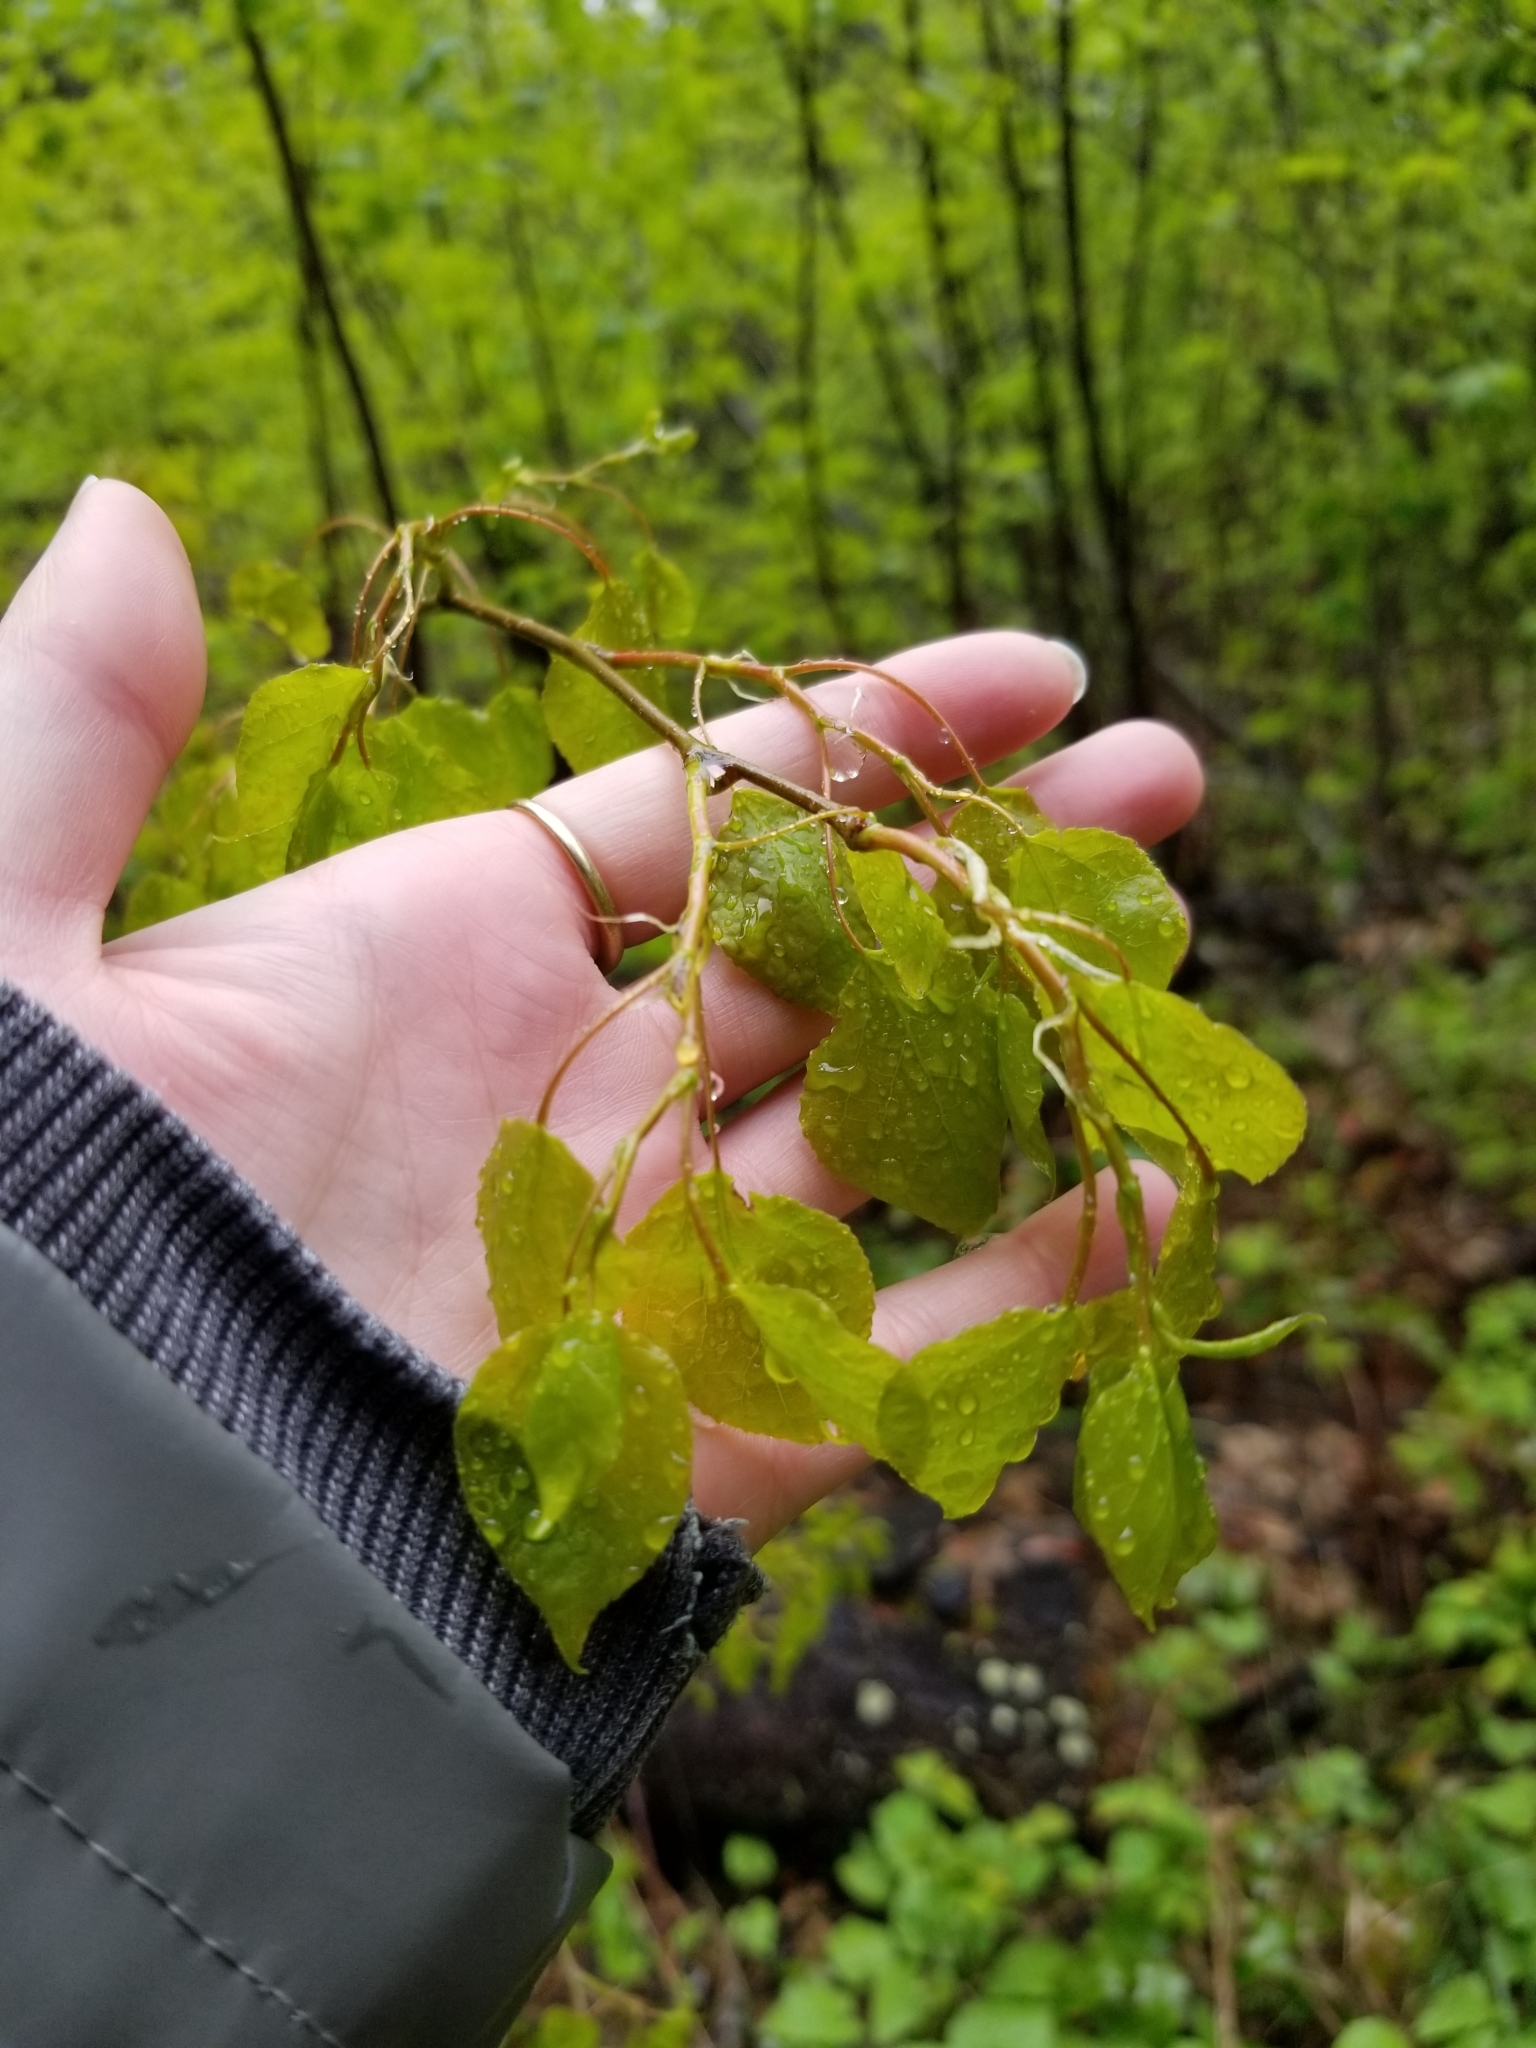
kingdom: Plantae
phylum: Tracheophyta
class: Magnoliopsida
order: Malpighiales
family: Salicaceae
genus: Populus
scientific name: Populus tremuloides
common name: Quaking aspen
